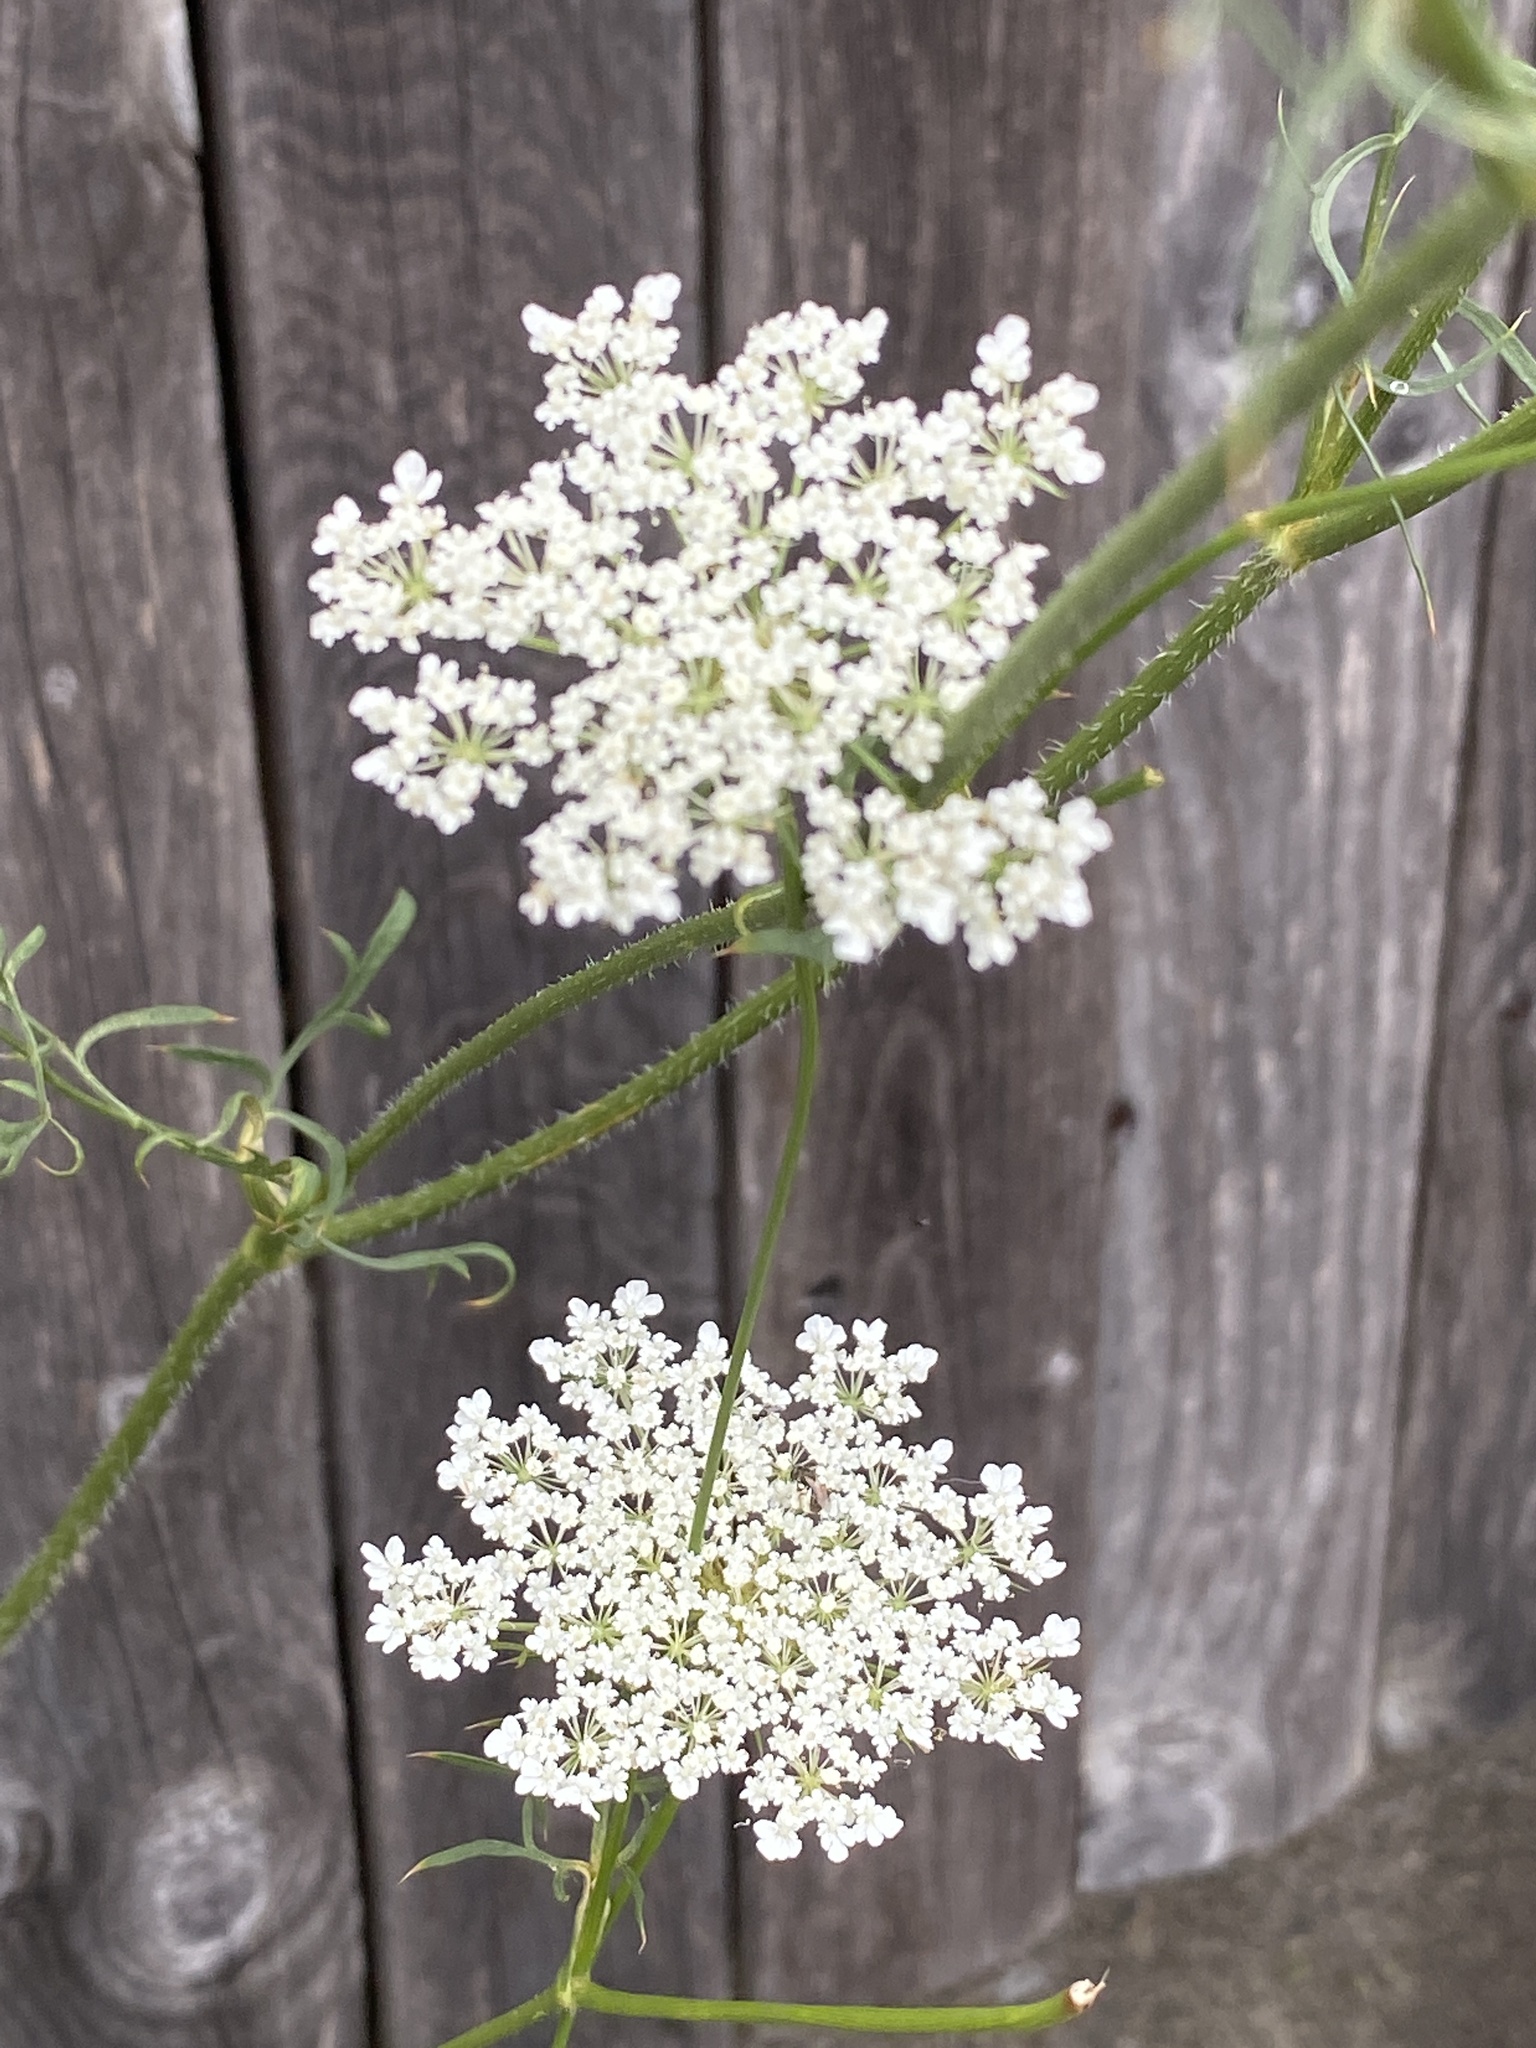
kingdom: Plantae
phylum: Tracheophyta
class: Magnoliopsida
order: Apiales
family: Apiaceae
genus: Daucus
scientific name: Daucus carota
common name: Wild carrot
